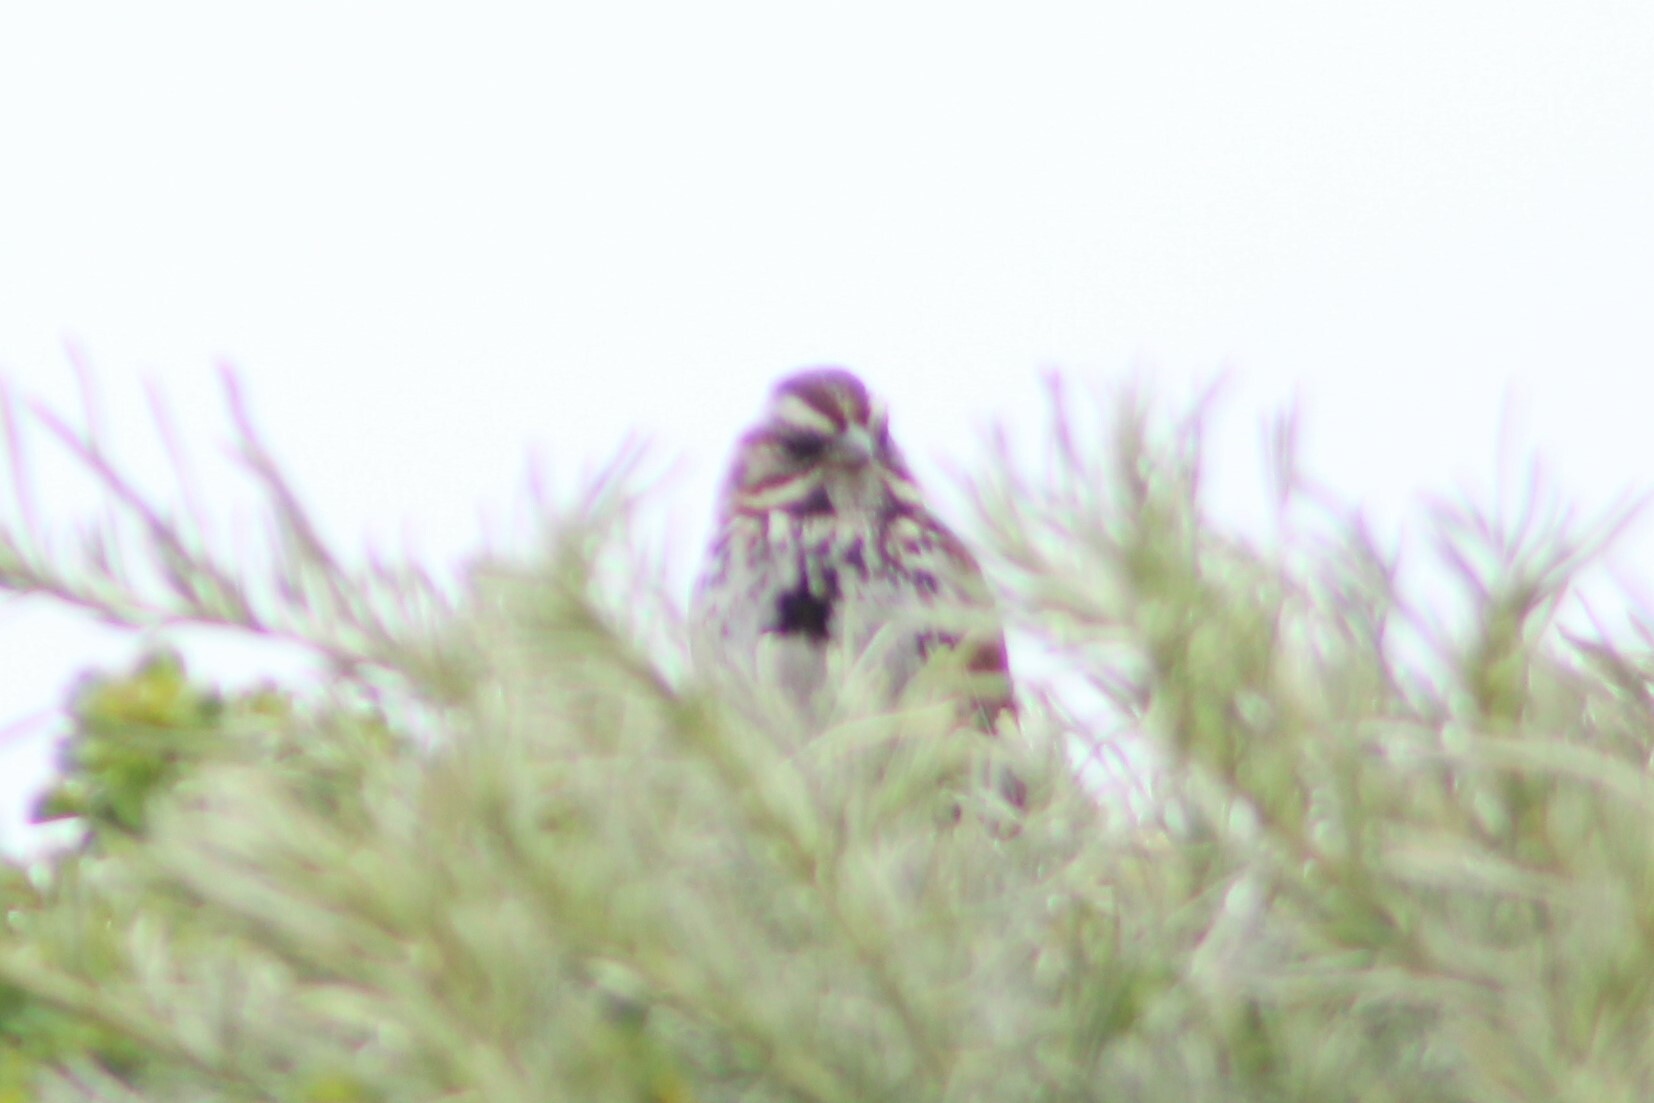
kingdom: Animalia
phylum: Chordata
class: Aves
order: Passeriformes
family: Passerellidae
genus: Melospiza
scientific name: Melospiza melodia
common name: Song sparrow
